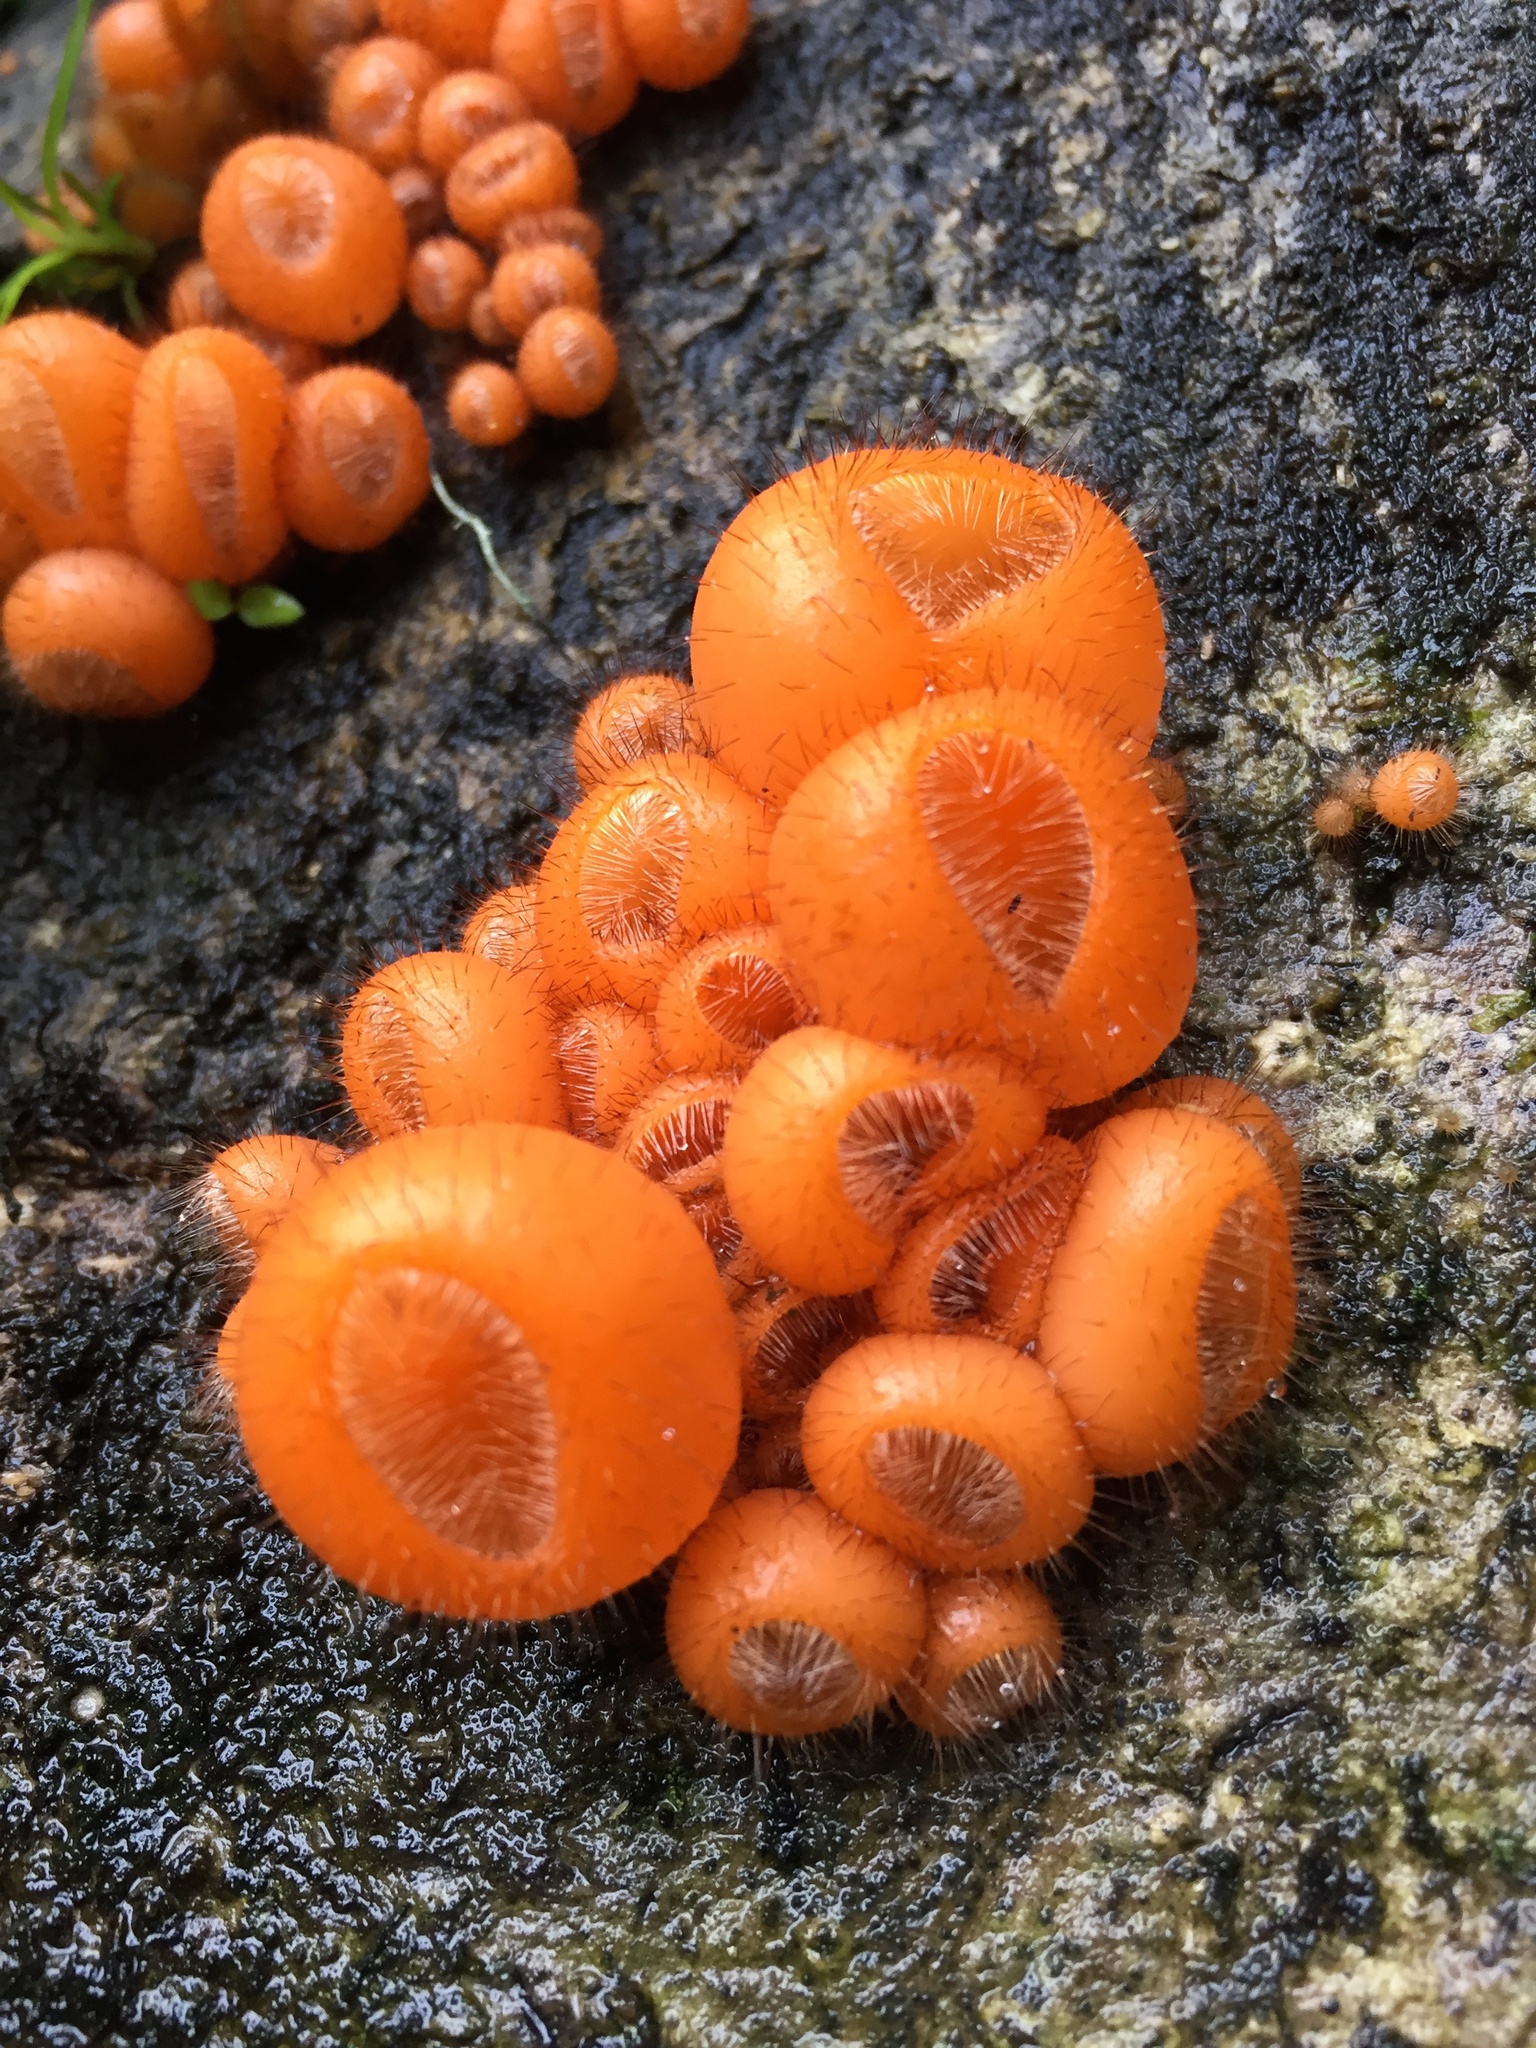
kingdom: Fungi
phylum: Ascomycota
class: Pezizomycetes
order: Pezizales
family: Sarcoscyphaceae
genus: Cookeina
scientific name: Cookeina tricholoma
